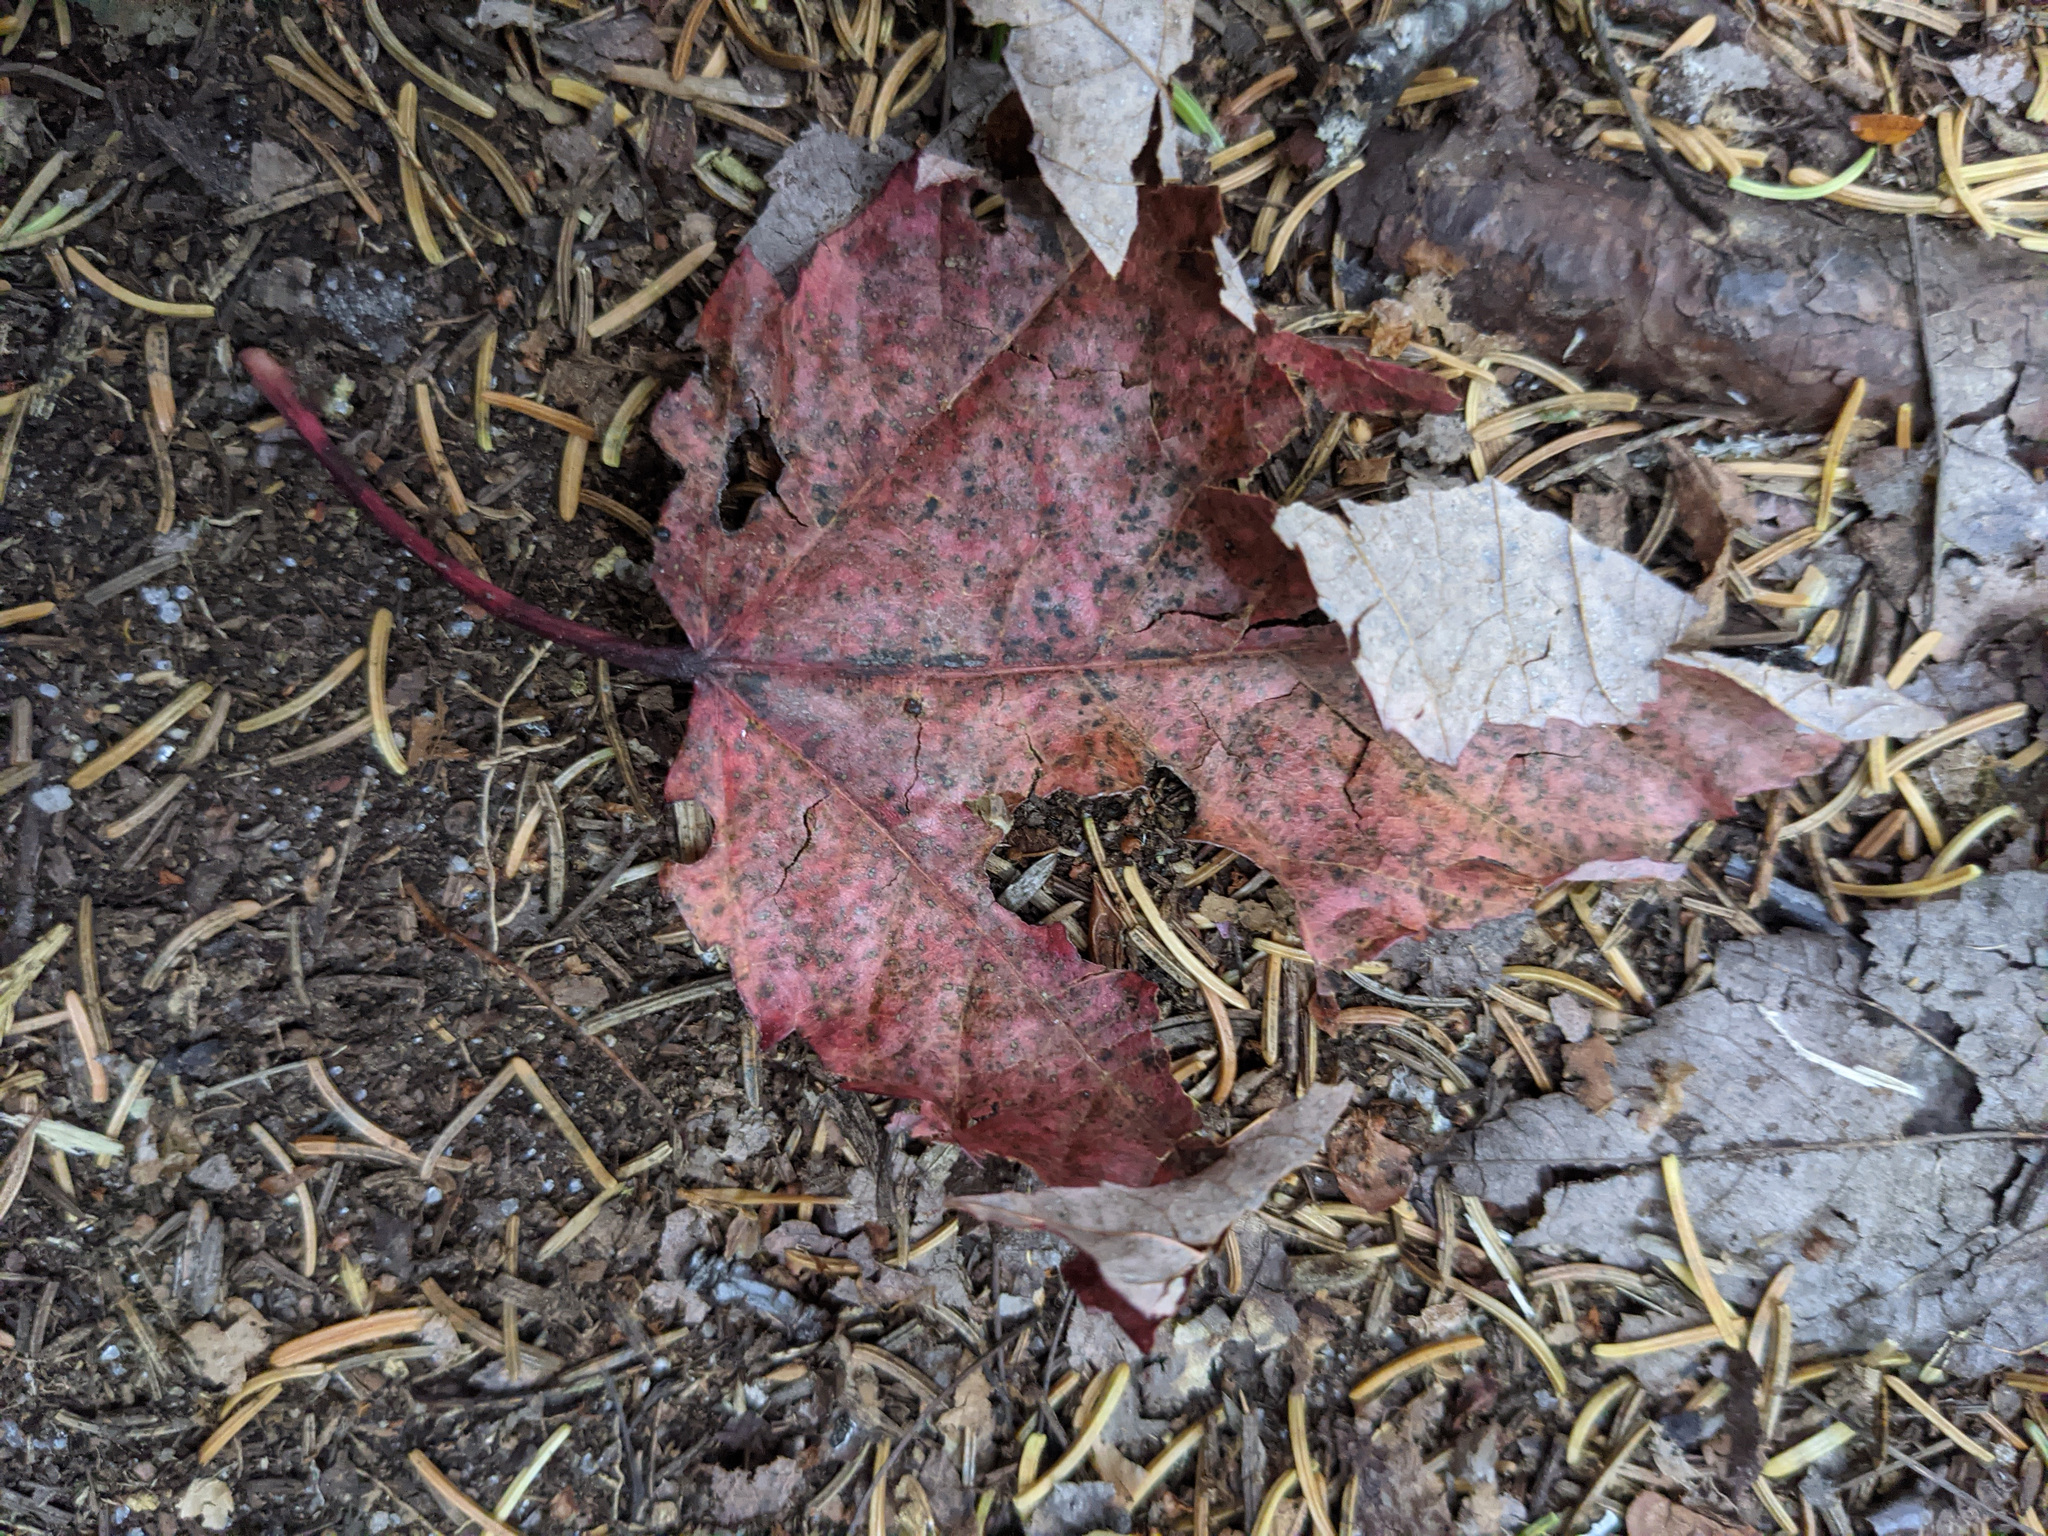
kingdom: Plantae
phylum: Tracheophyta
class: Magnoliopsida
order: Sapindales
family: Sapindaceae
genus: Acer
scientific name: Acer rubrum
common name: Red maple
